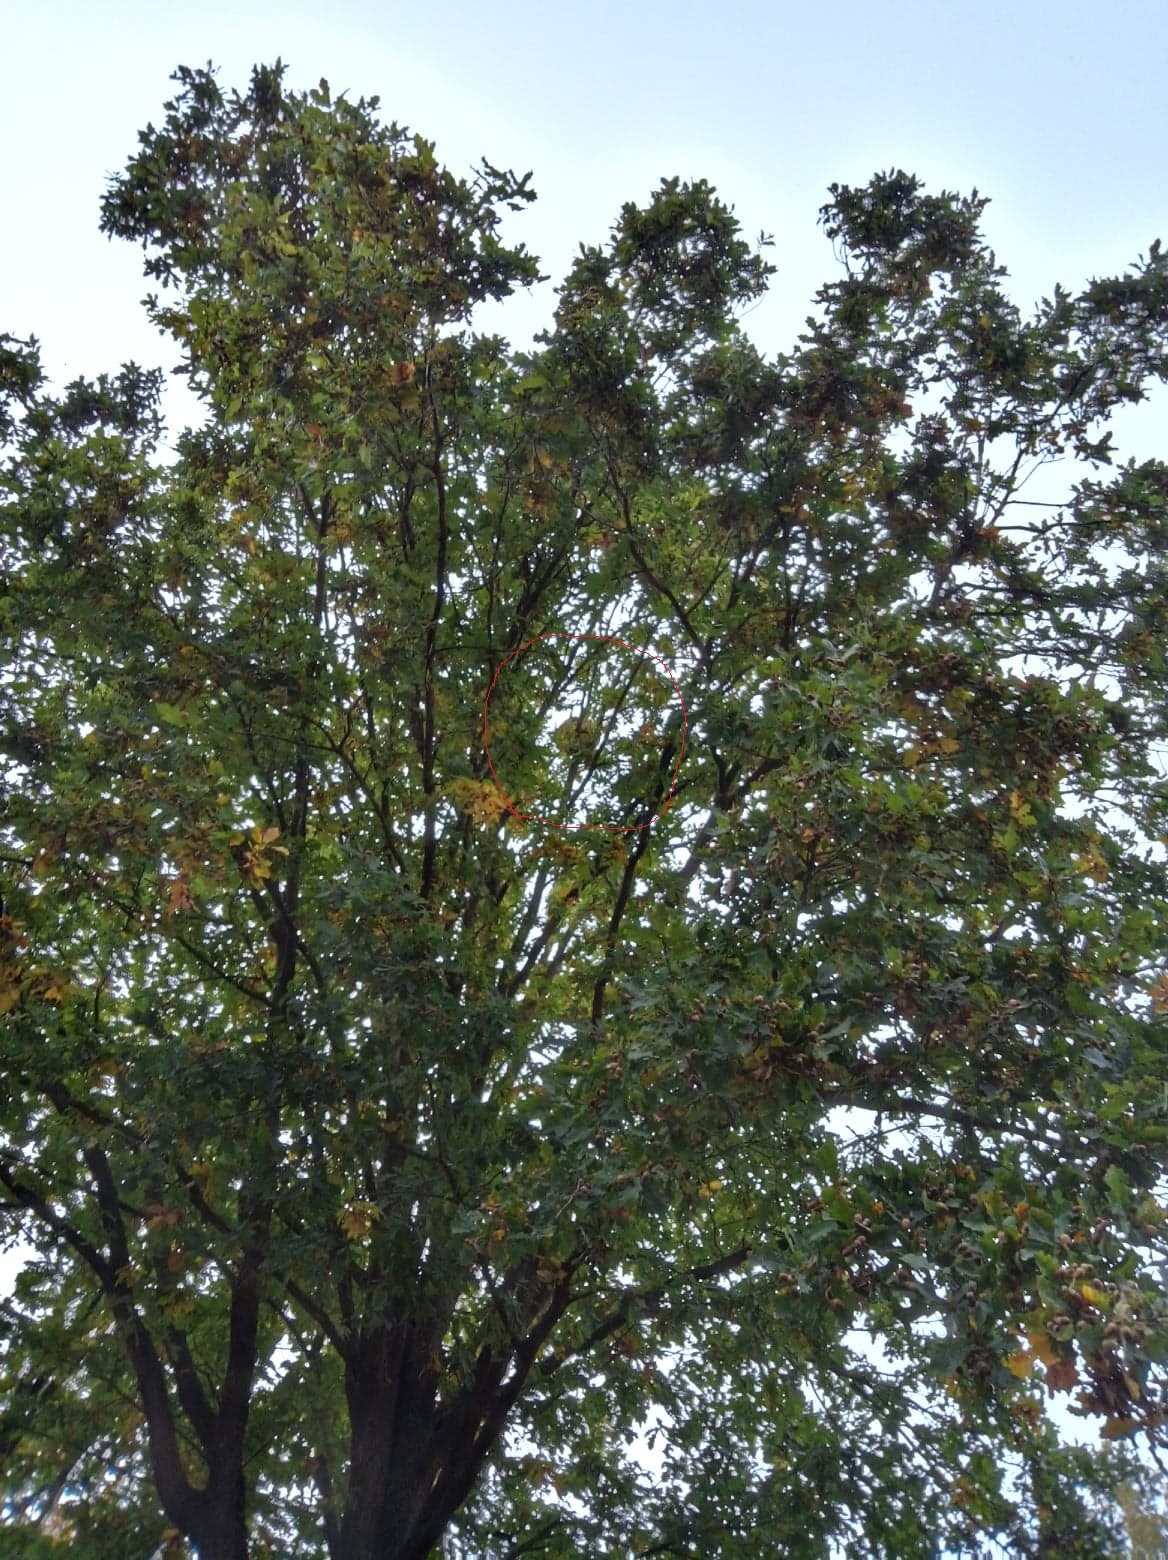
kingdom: Animalia
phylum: Arthropoda
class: Insecta
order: Hymenoptera
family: Vespidae
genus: Vespa
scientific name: Vespa velutina
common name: Asian hornet
